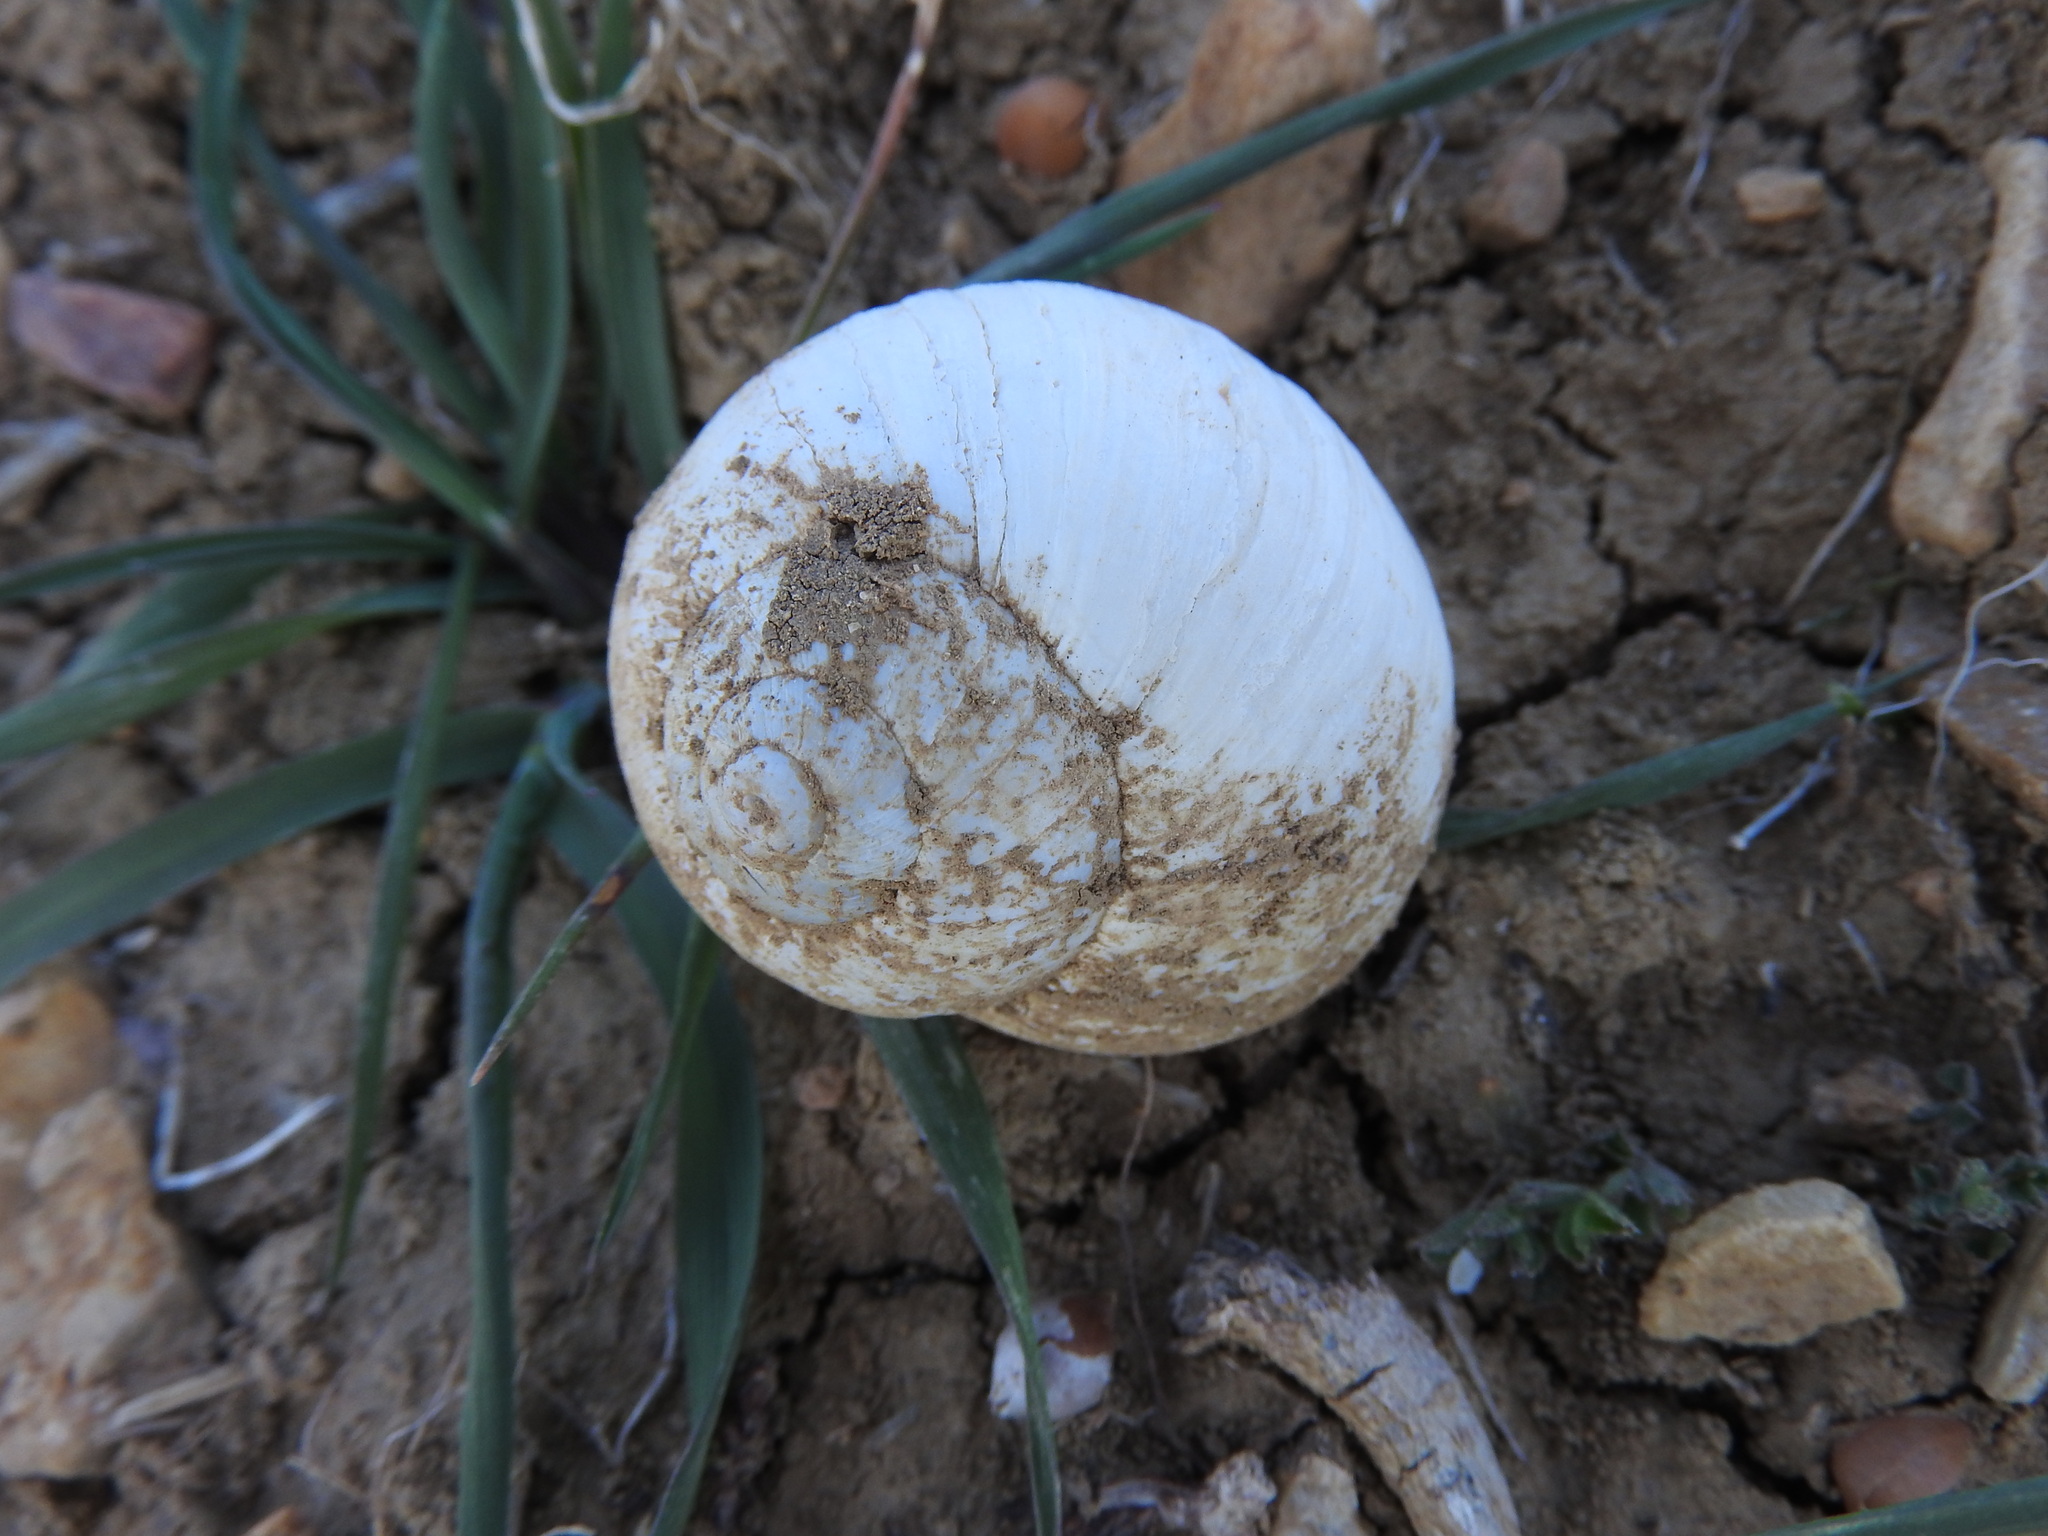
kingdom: Animalia
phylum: Mollusca
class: Gastropoda
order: Stylommatophora
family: Helicidae
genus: Helix
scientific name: Helix melanostoma
